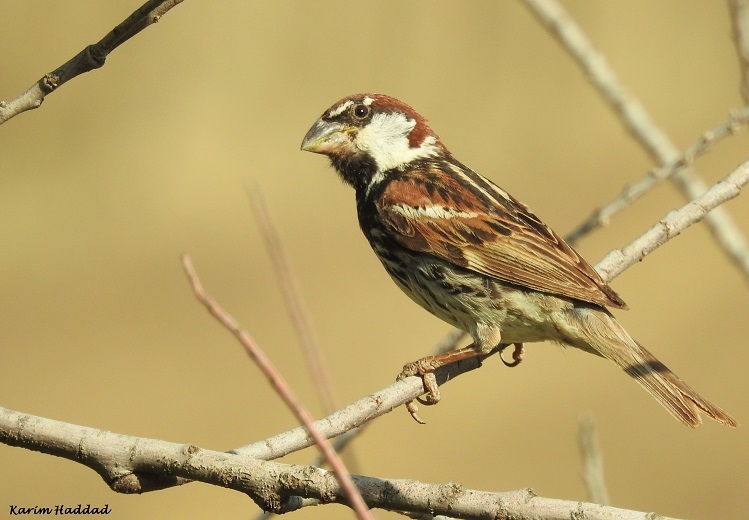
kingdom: Animalia
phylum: Chordata
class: Aves
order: Passeriformes
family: Passeridae
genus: Passer
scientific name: Passer hispaniolensis
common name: Spanish sparrow
